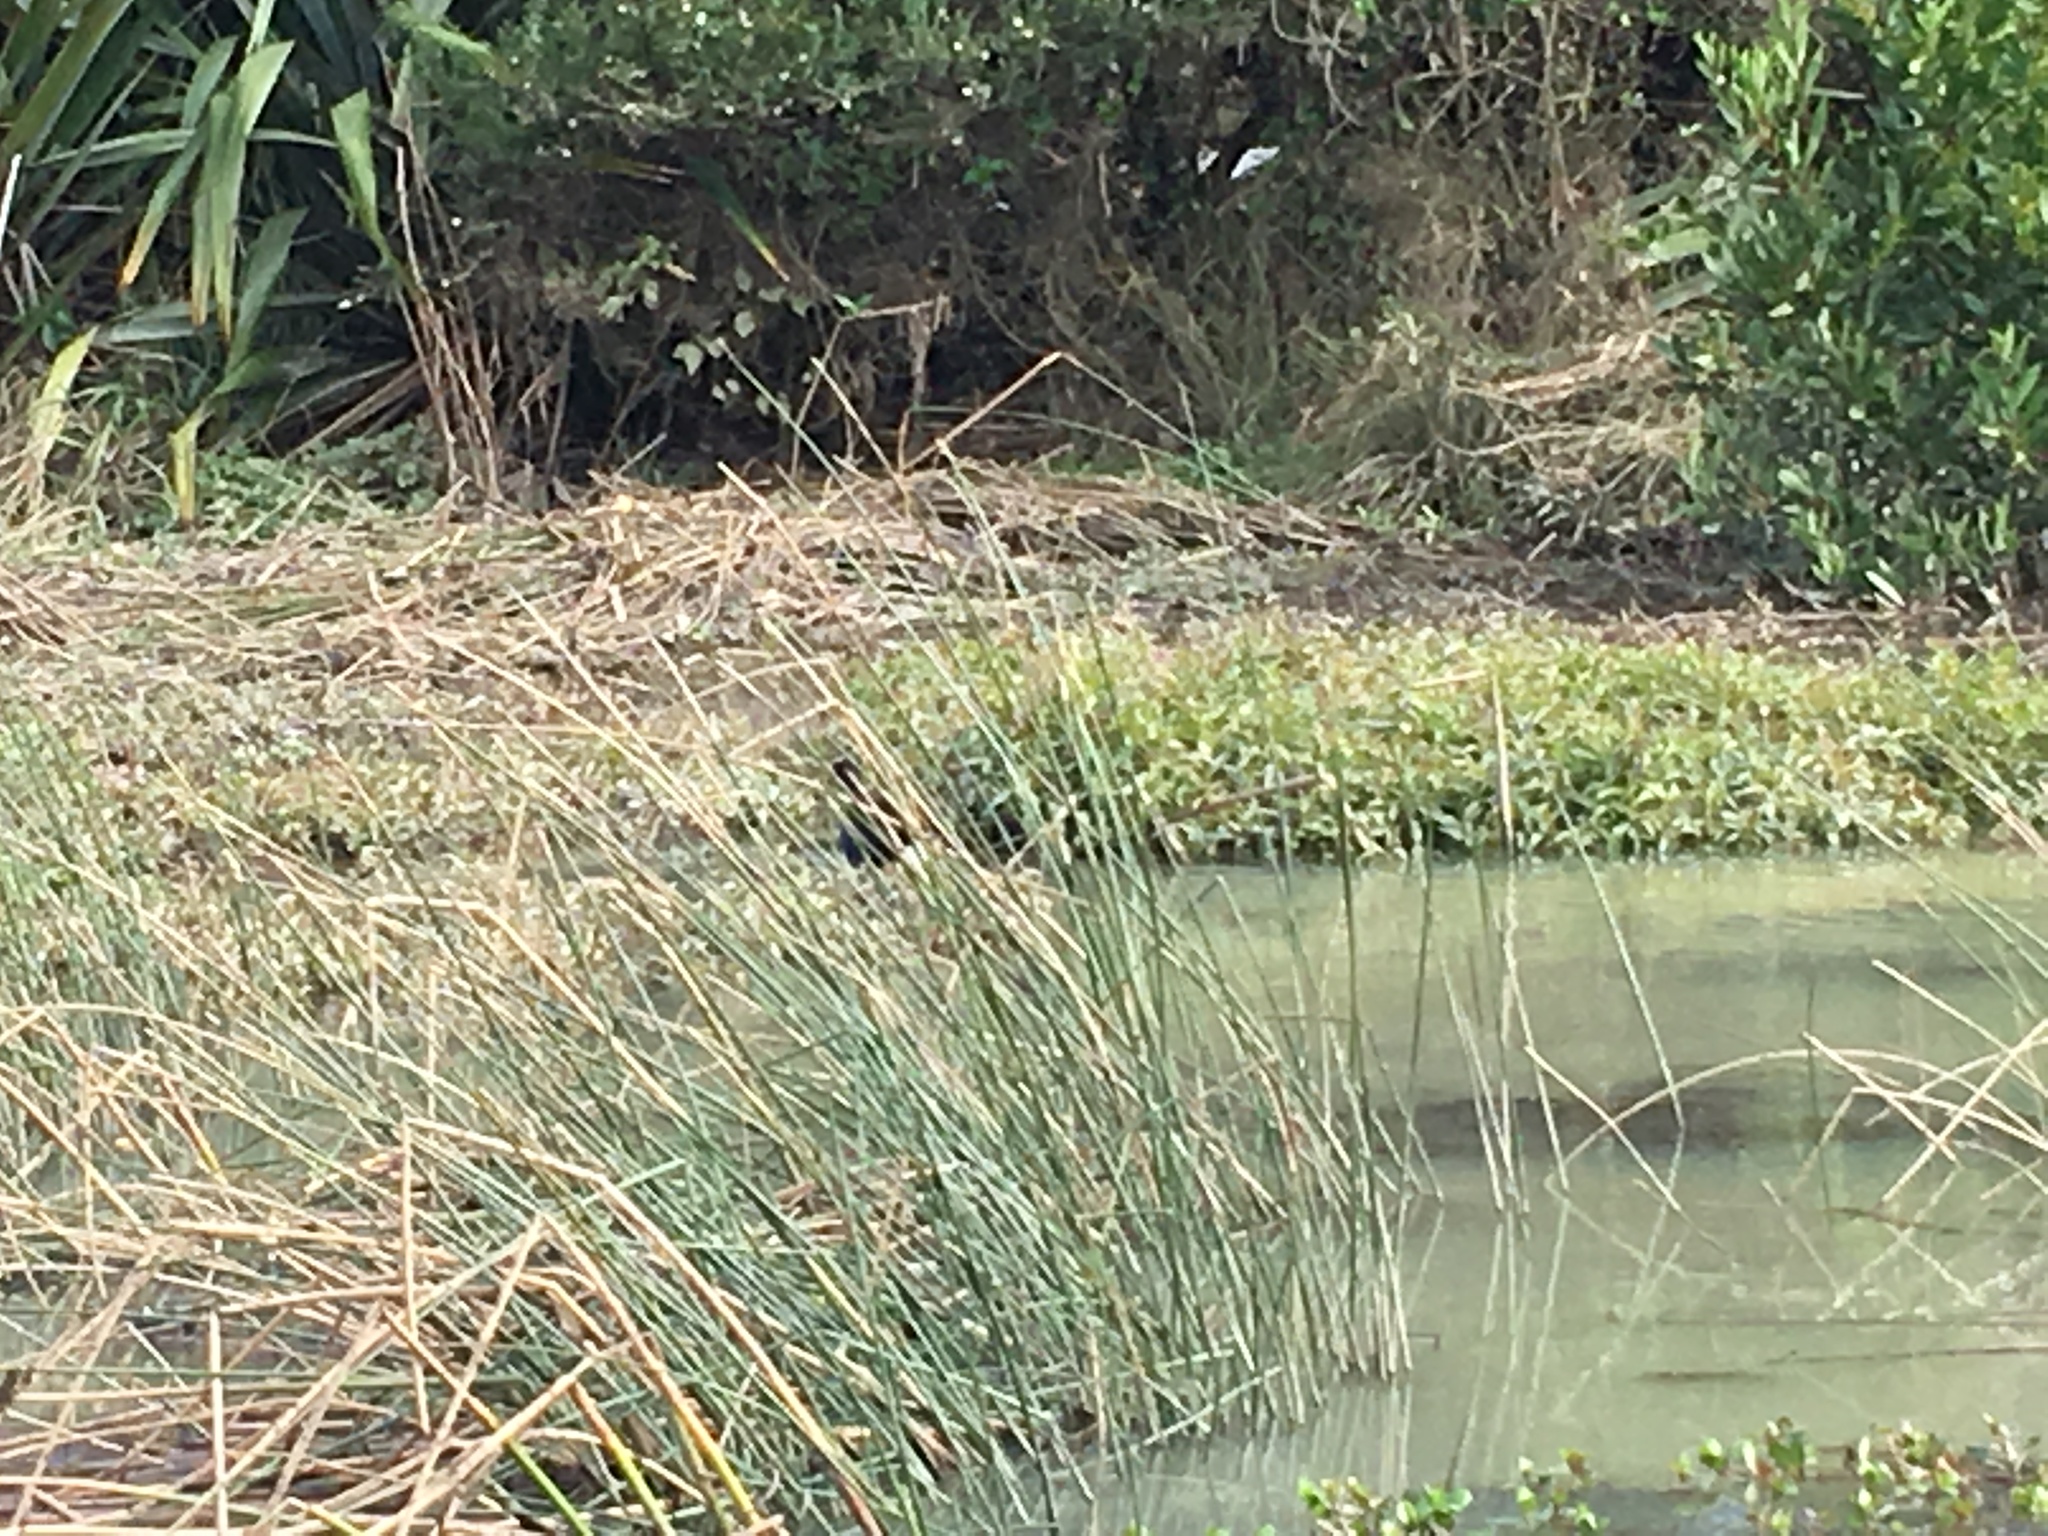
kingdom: Plantae
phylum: Tracheophyta
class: Liliopsida
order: Poales
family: Juncaceae
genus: Juncus
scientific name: Juncus pallidus
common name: Great soft-rush
